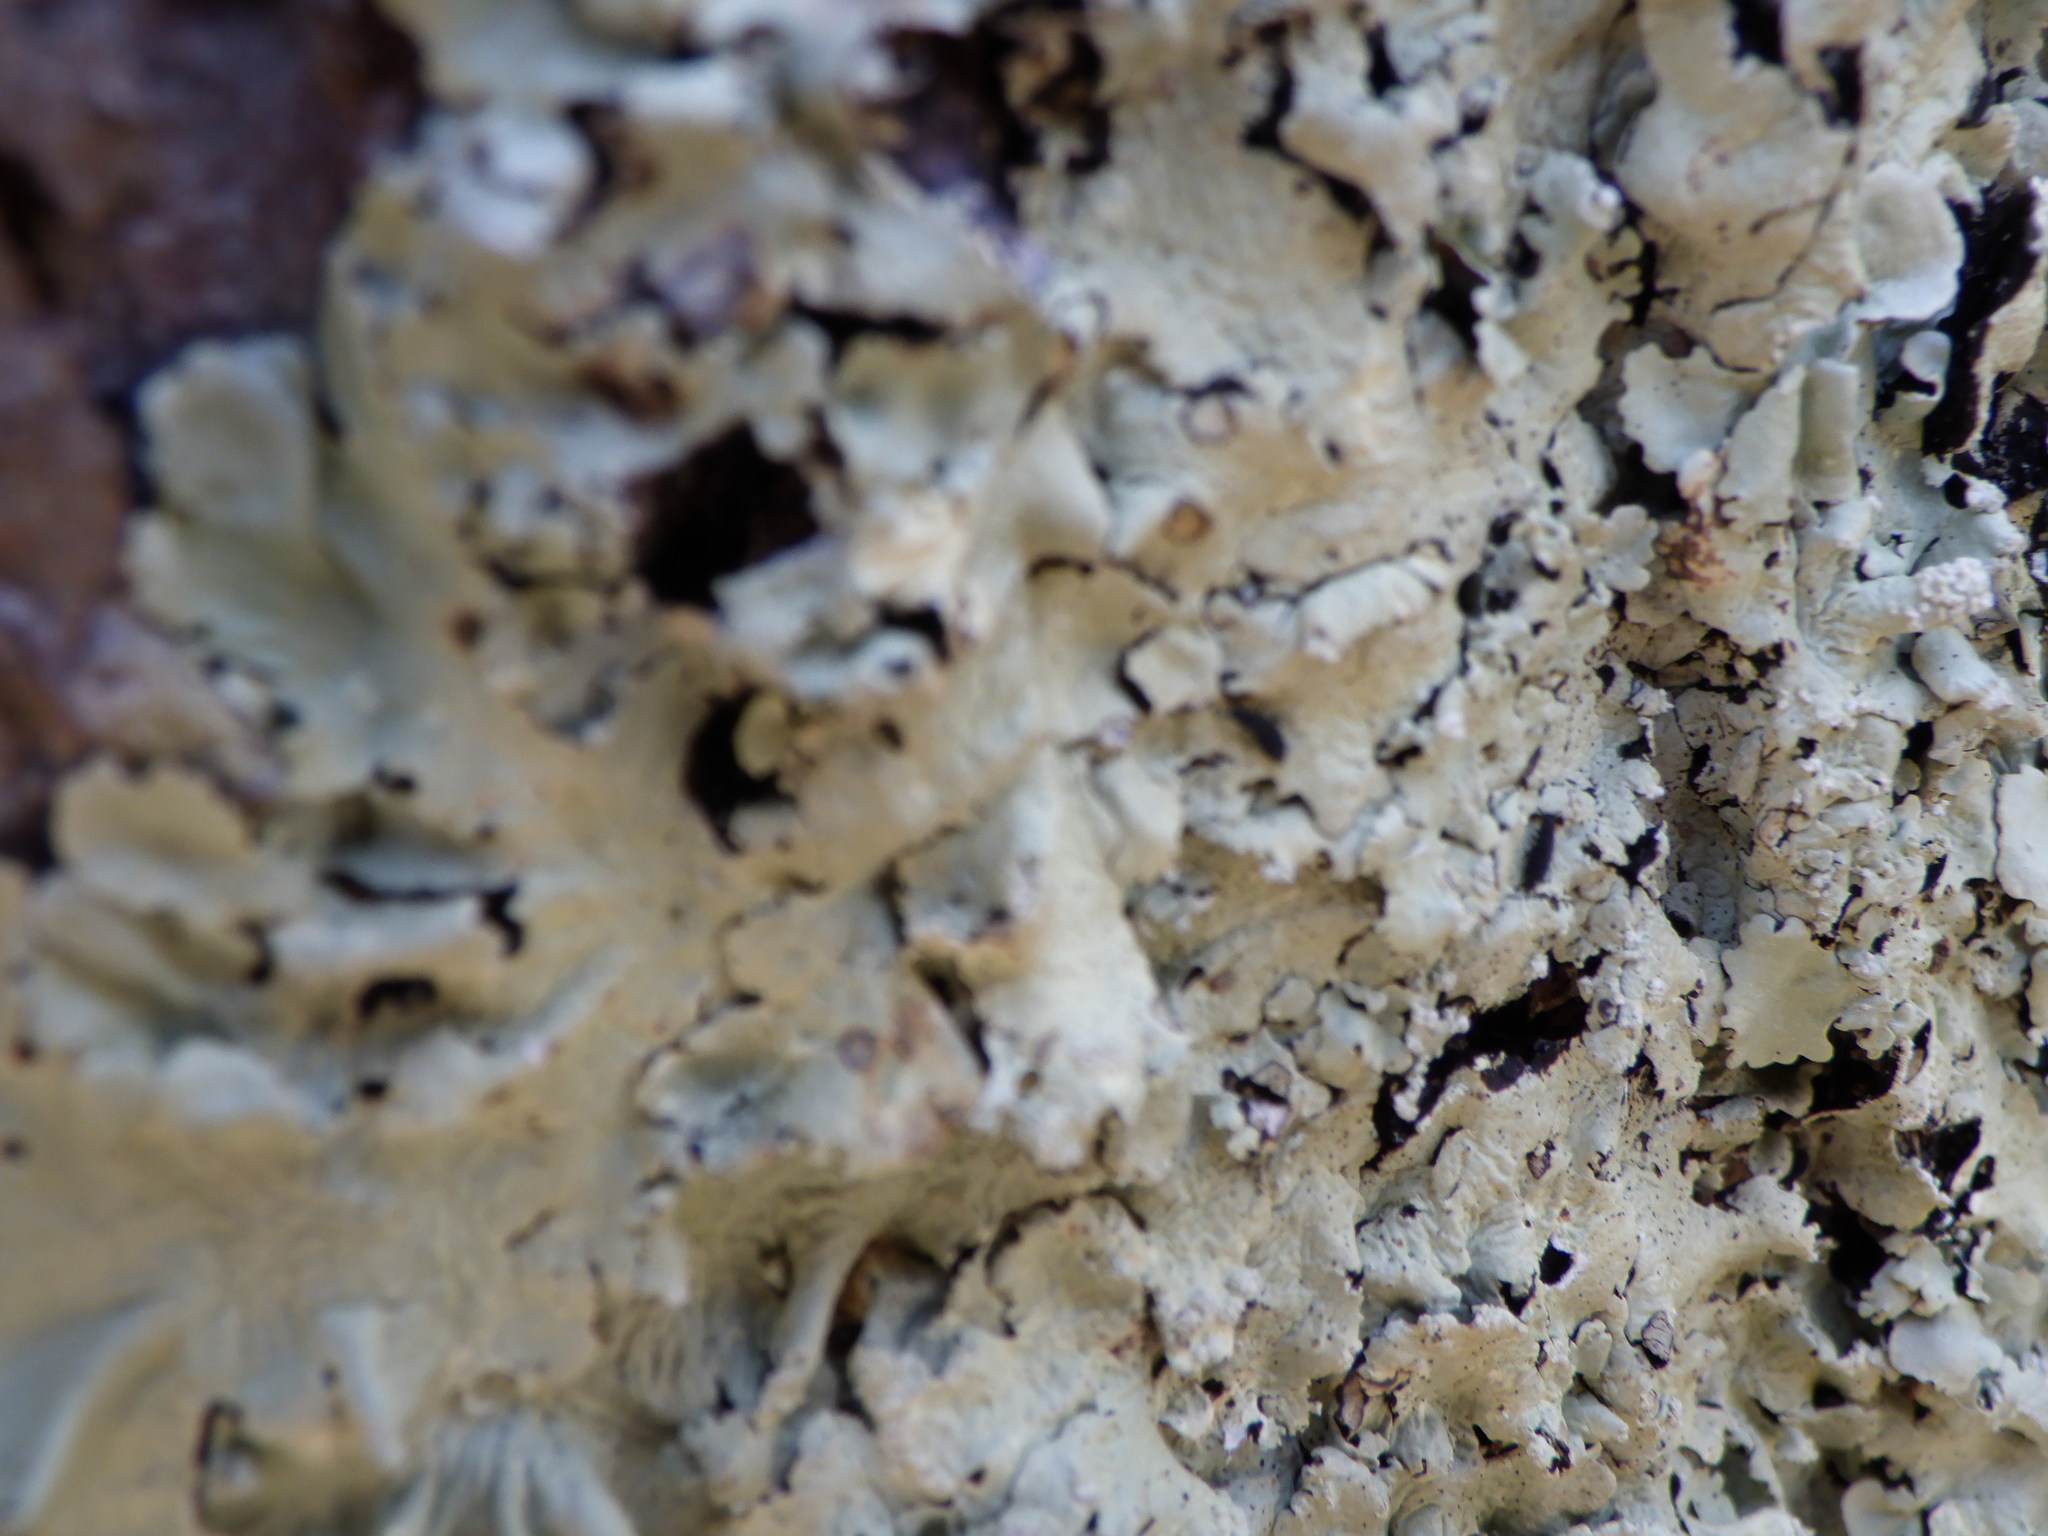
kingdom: Fungi
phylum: Ascomycota
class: Lecanoromycetes
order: Lecanorales
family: Parmeliaceae
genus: Flavoparmelia
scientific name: Flavoparmelia caperata
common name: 40-mile per hour lichen
